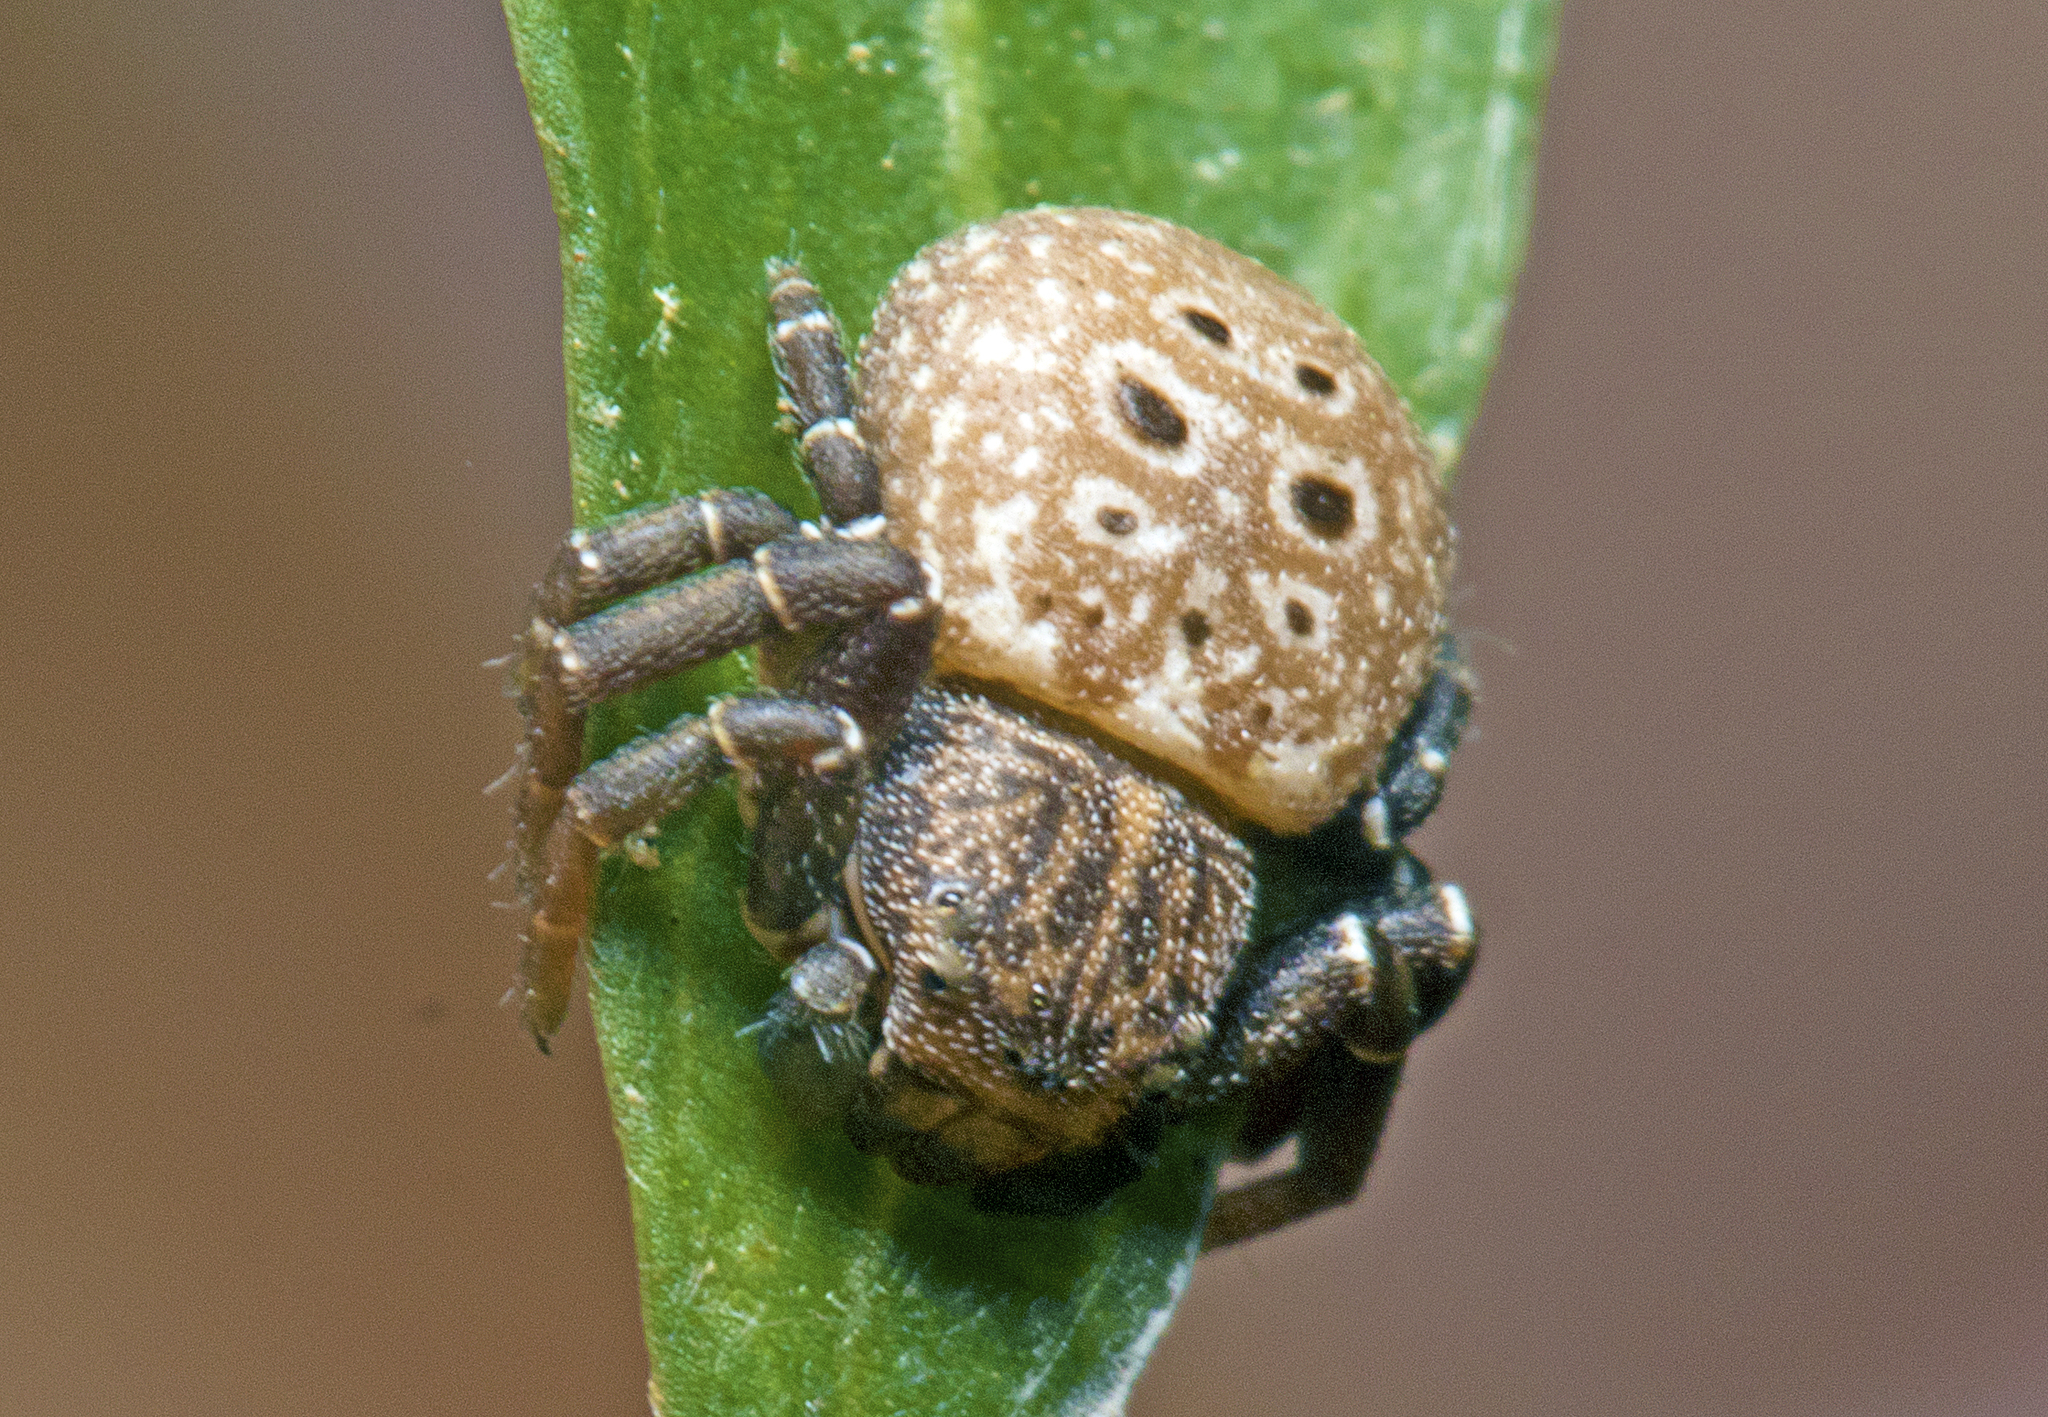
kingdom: Animalia
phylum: Arthropoda
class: Arachnida
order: Araneae
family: Thomisidae
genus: Cymbacha
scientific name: Cymbacha ocellata
